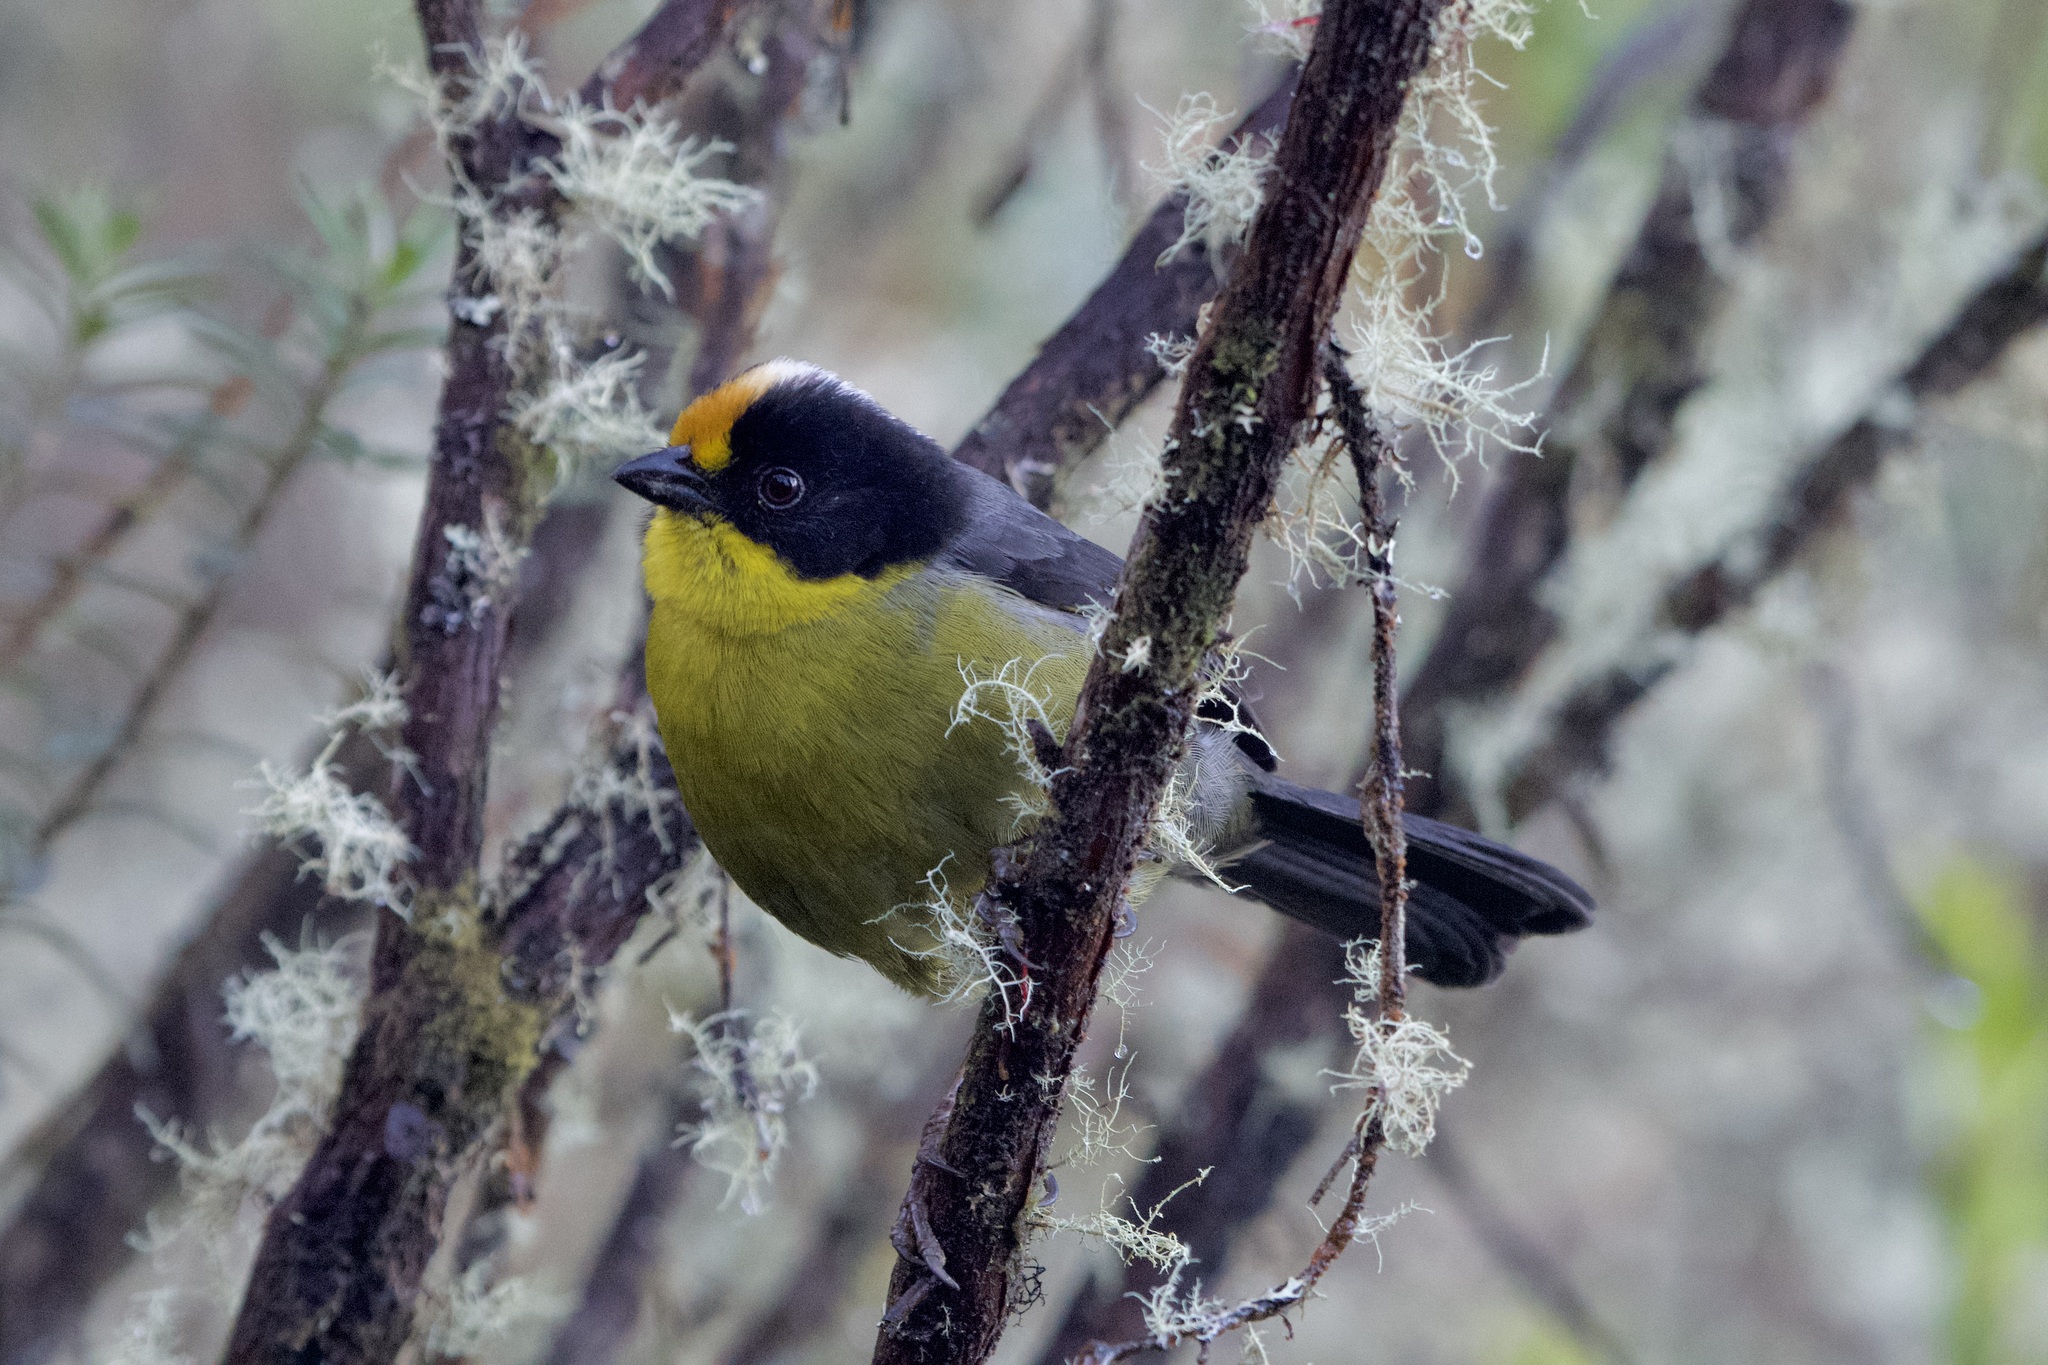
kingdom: Animalia
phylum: Chordata
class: Aves
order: Passeriformes
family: Passerellidae
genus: Atlapetes
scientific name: Atlapetes pallidinucha
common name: Pale-naped brushfinch
